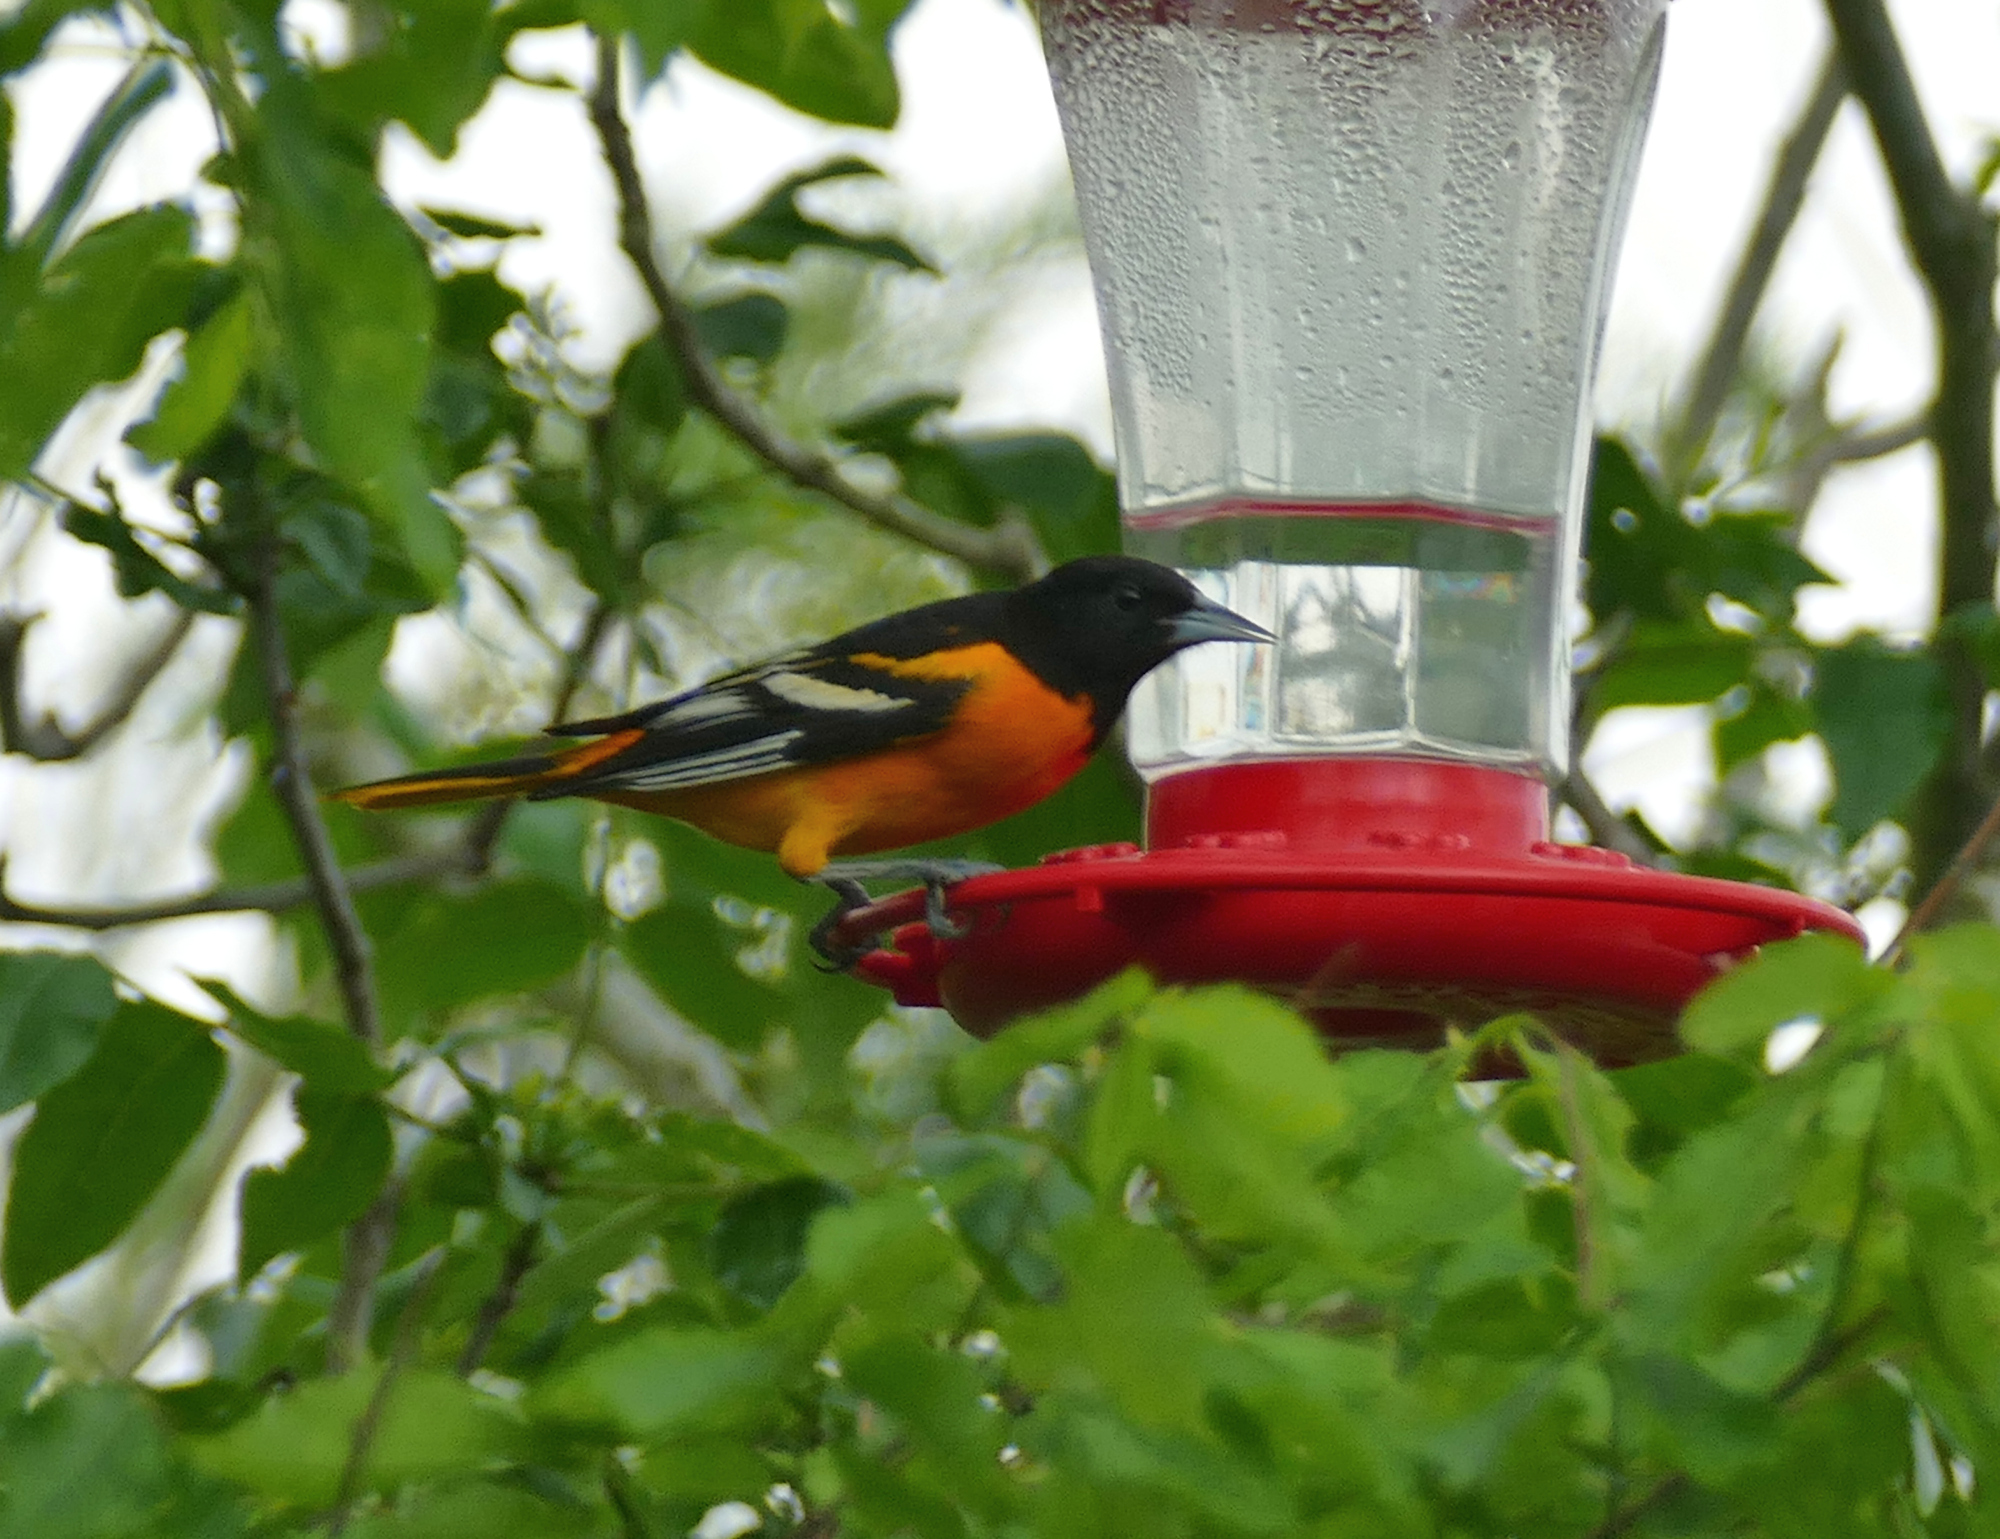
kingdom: Animalia
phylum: Chordata
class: Aves
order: Passeriformes
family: Icteridae
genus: Icterus
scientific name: Icterus galbula
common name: Baltimore oriole
